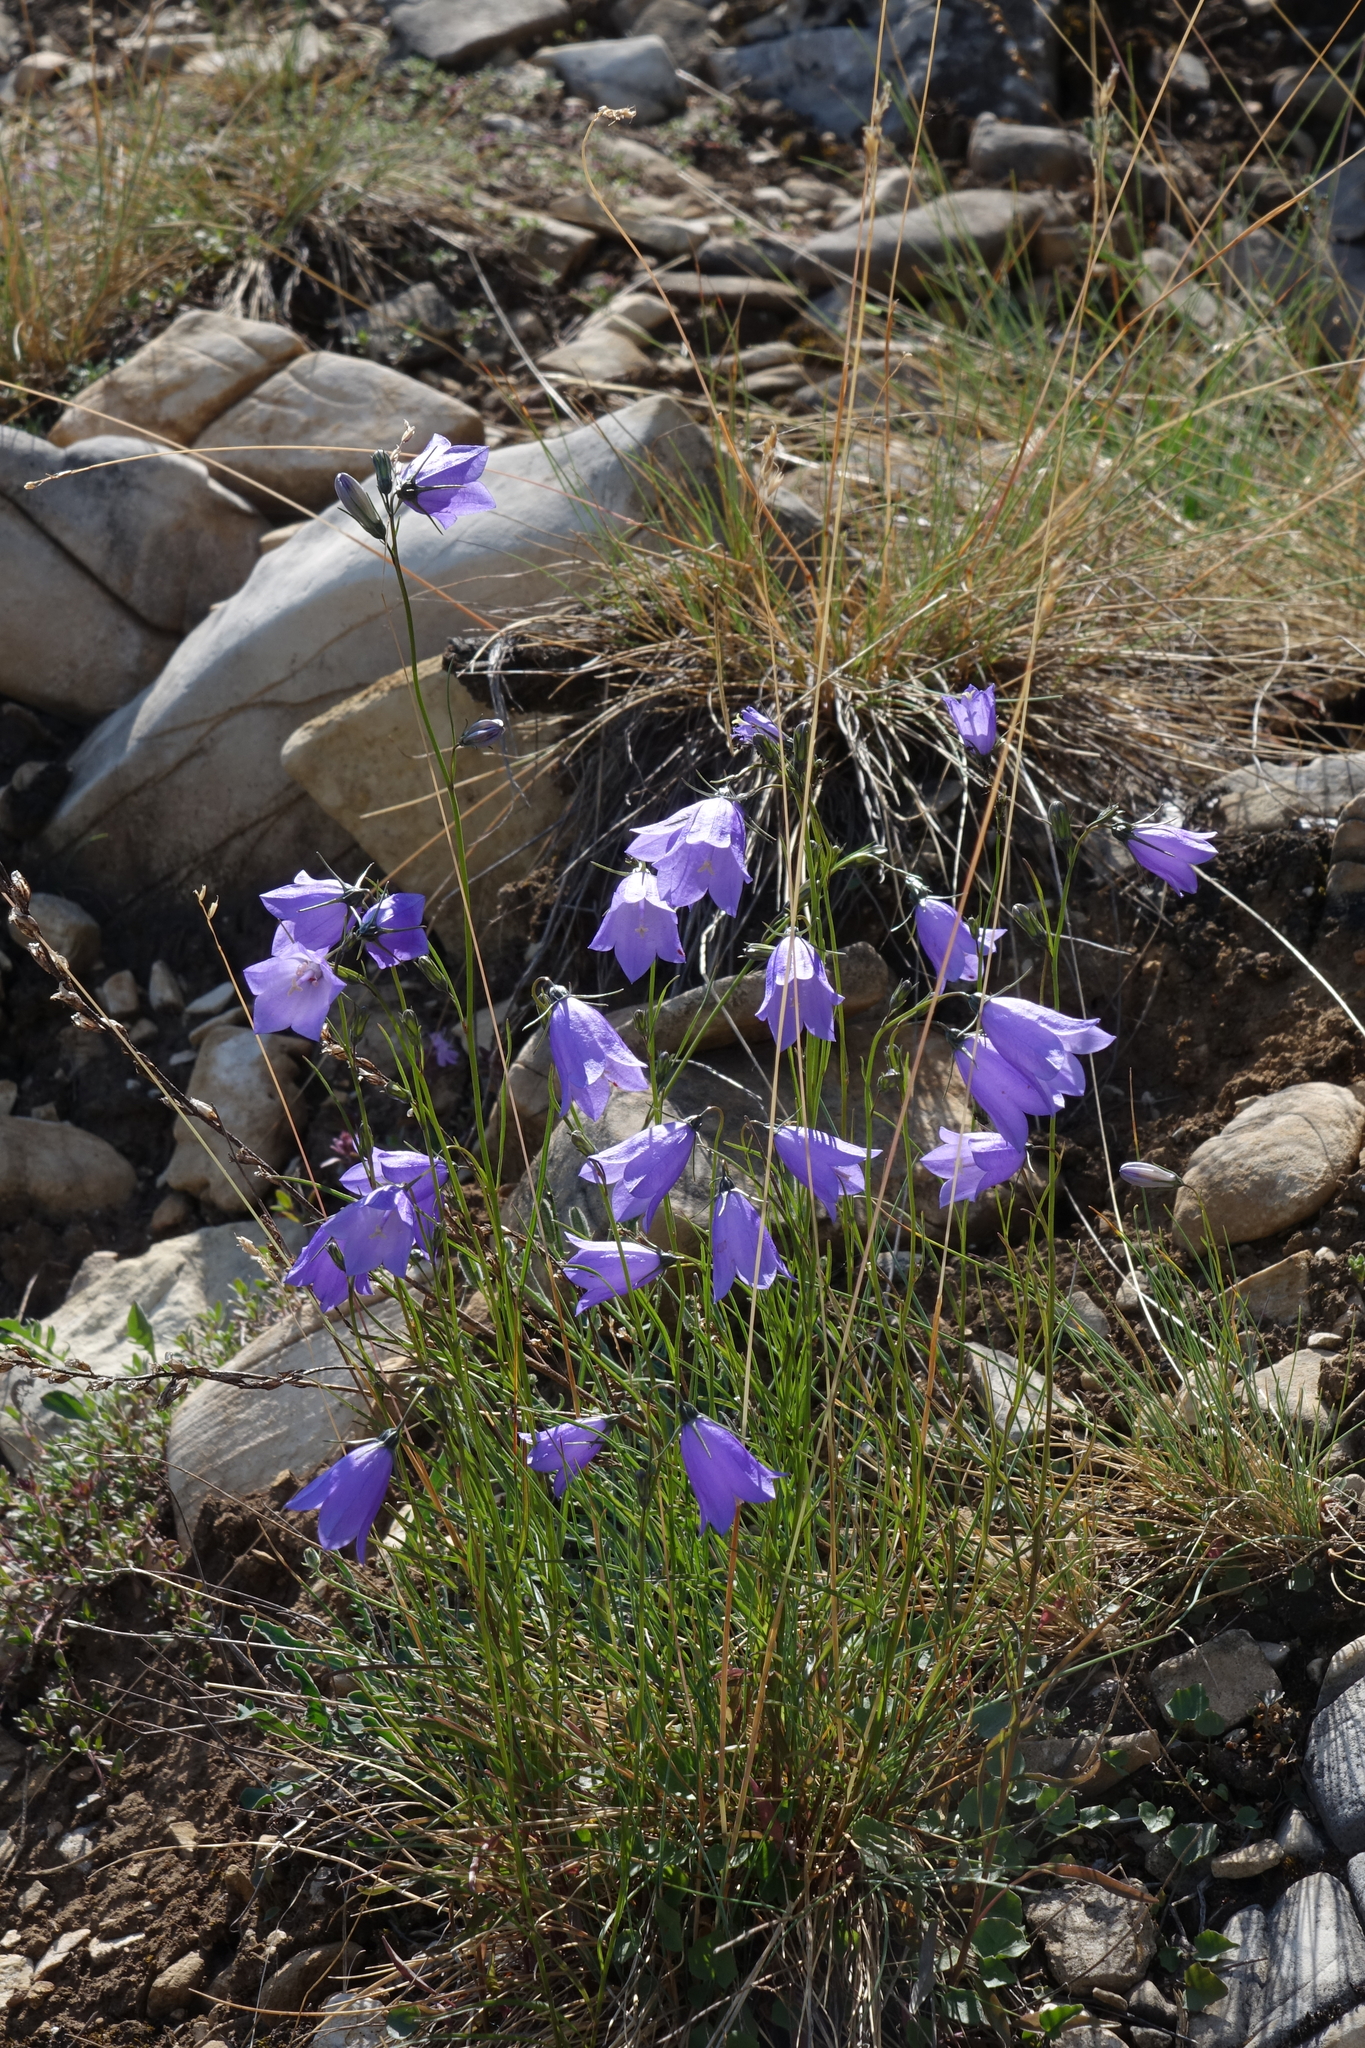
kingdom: Plantae
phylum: Tracheophyta
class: Magnoliopsida
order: Asterales
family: Campanulaceae
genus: Campanula
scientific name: Campanula rotundifolia
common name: Harebell
